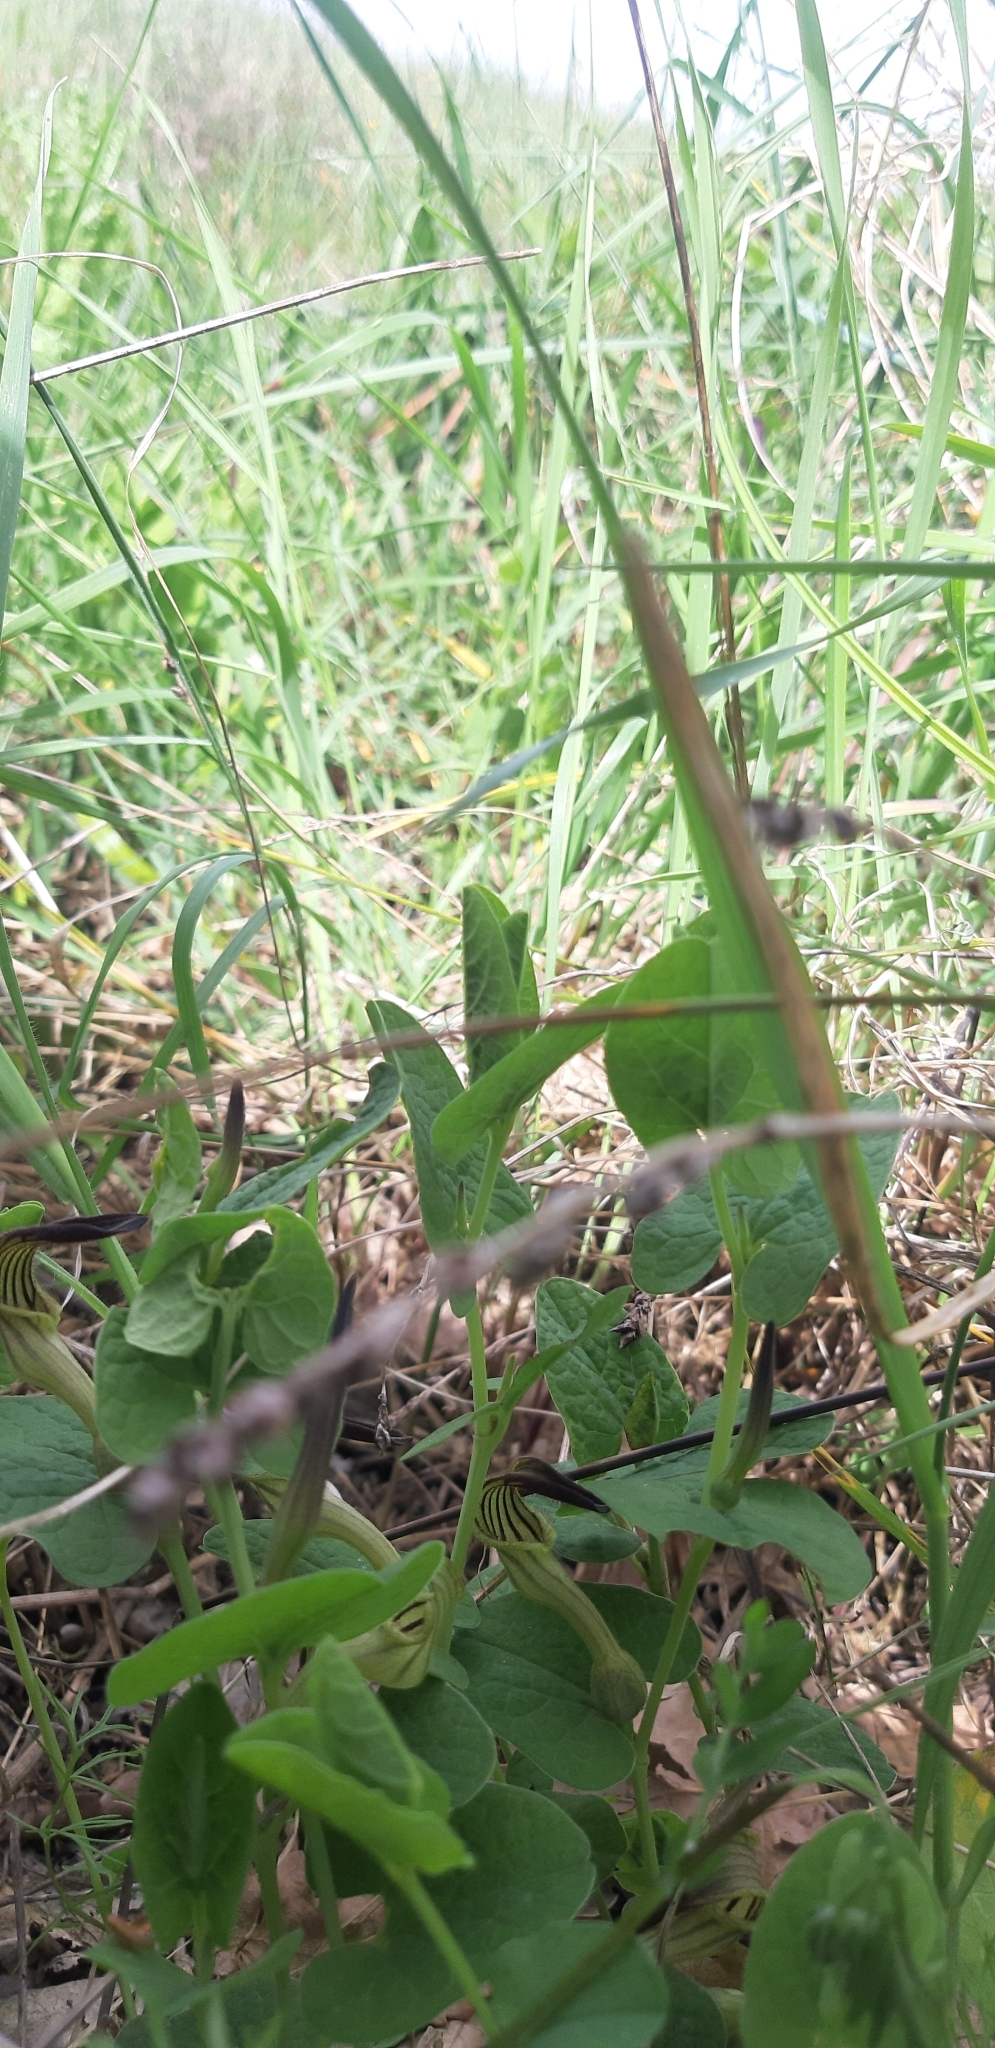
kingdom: Plantae
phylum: Tracheophyta
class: Magnoliopsida
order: Piperales
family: Aristolochiaceae
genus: Aristolochia
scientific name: Aristolochia clusii
